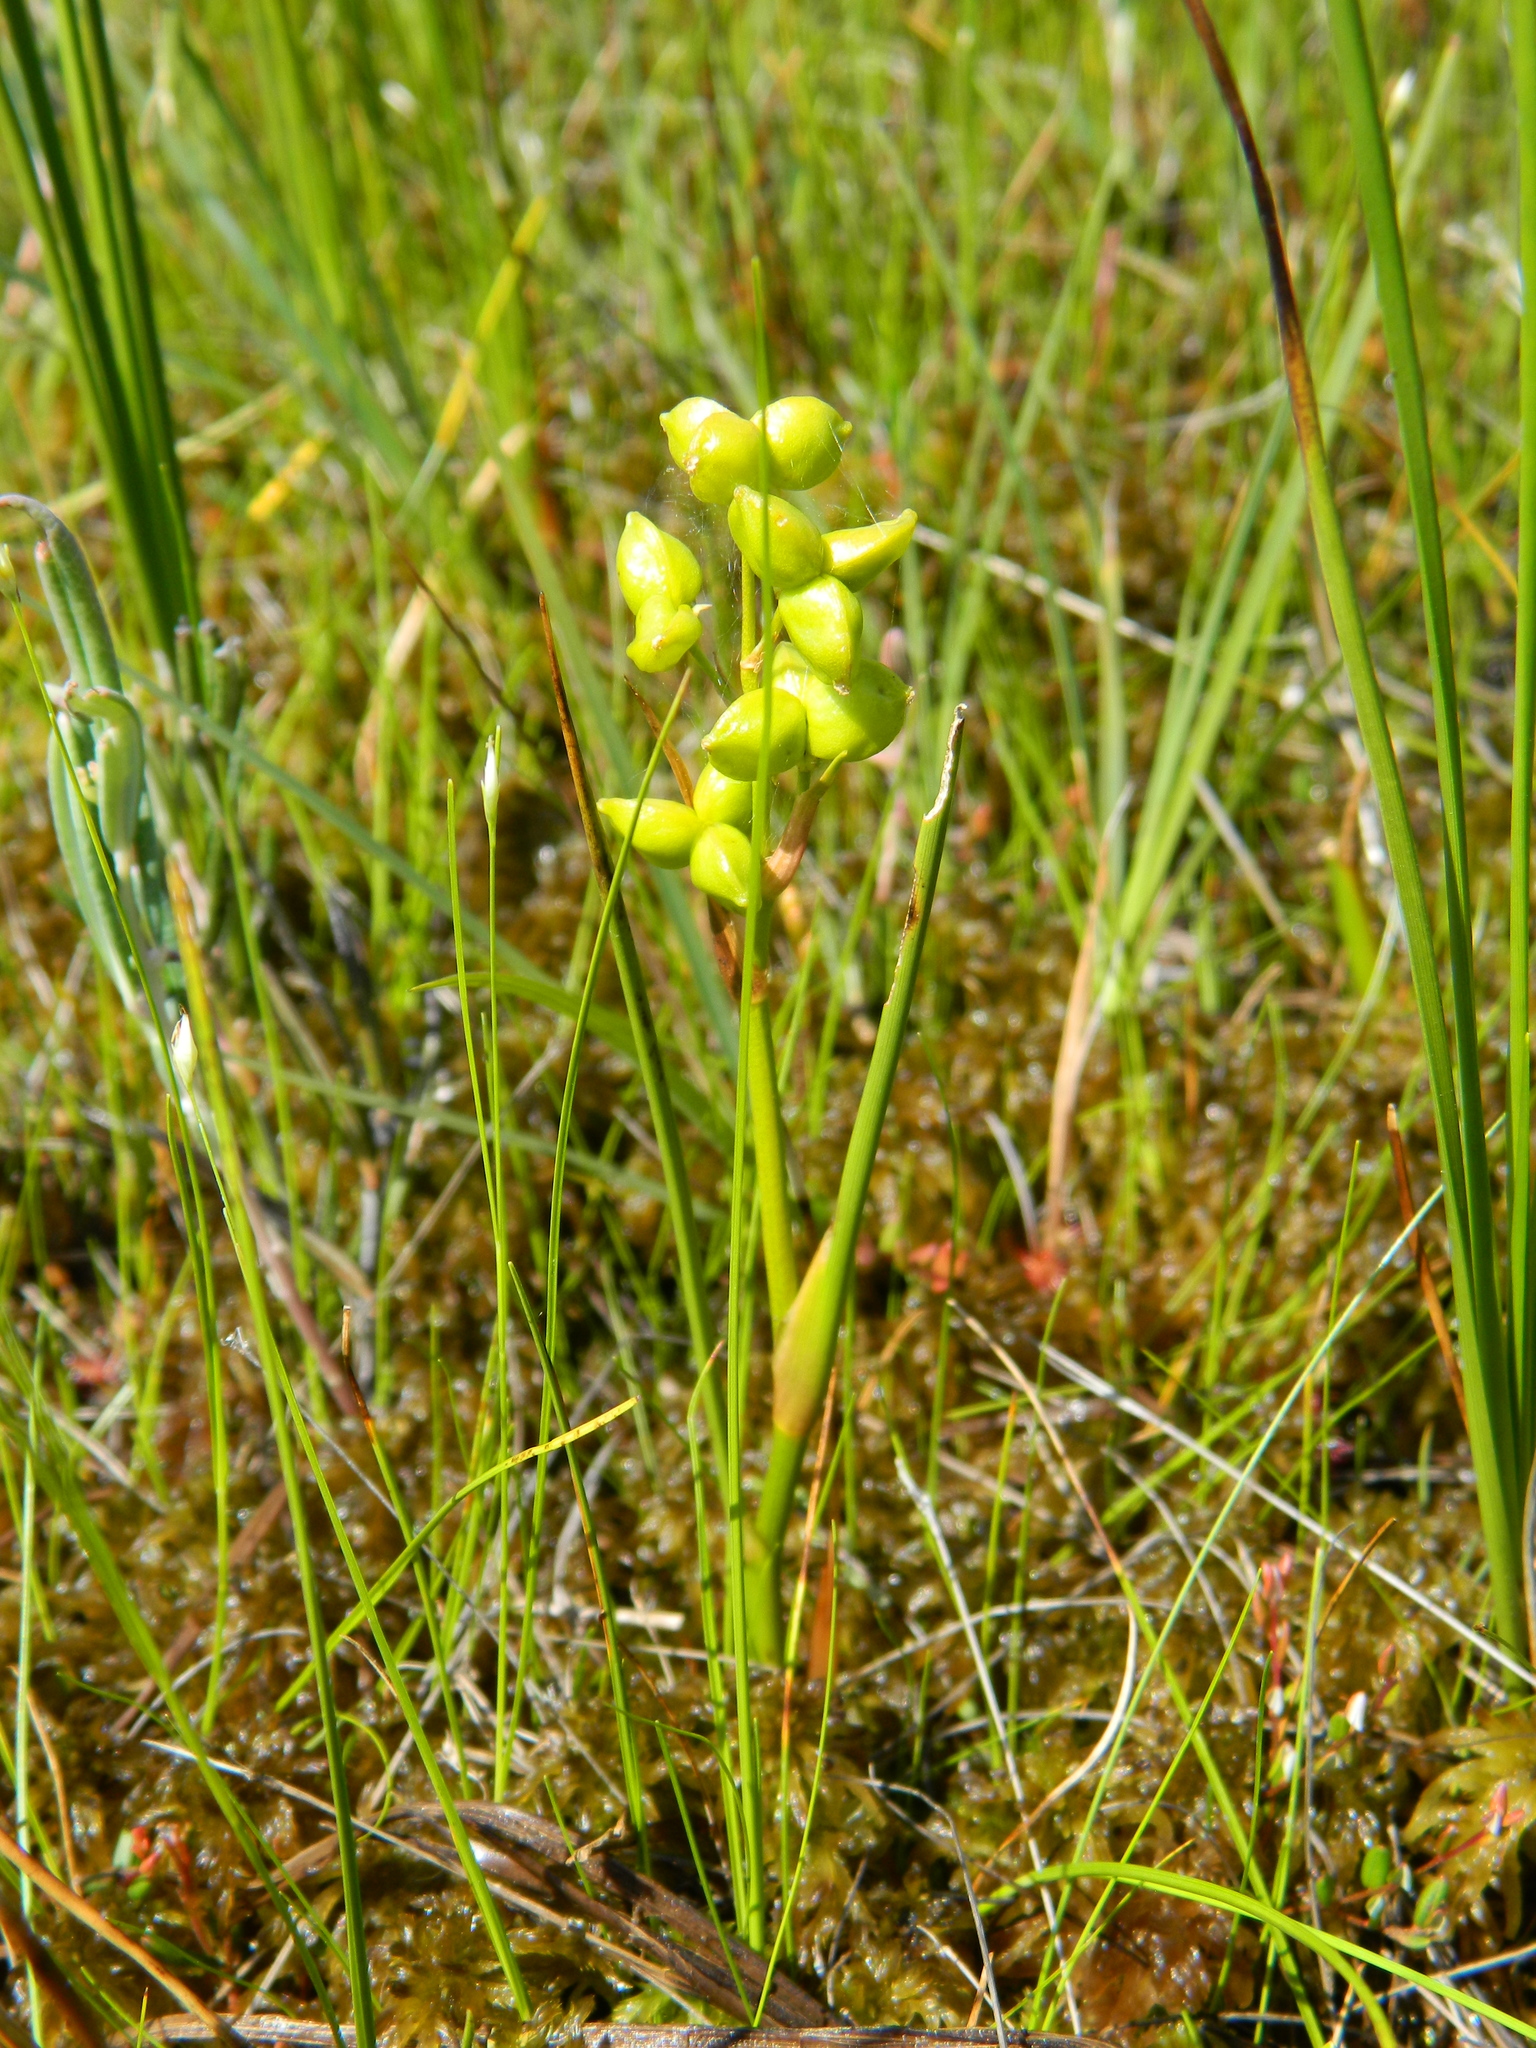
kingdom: Plantae
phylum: Tracheophyta
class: Liliopsida
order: Alismatales
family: Scheuchzeriaceae
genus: Scheuchzeria
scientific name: Scheuchzeria palustris
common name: Rannoch-rush
